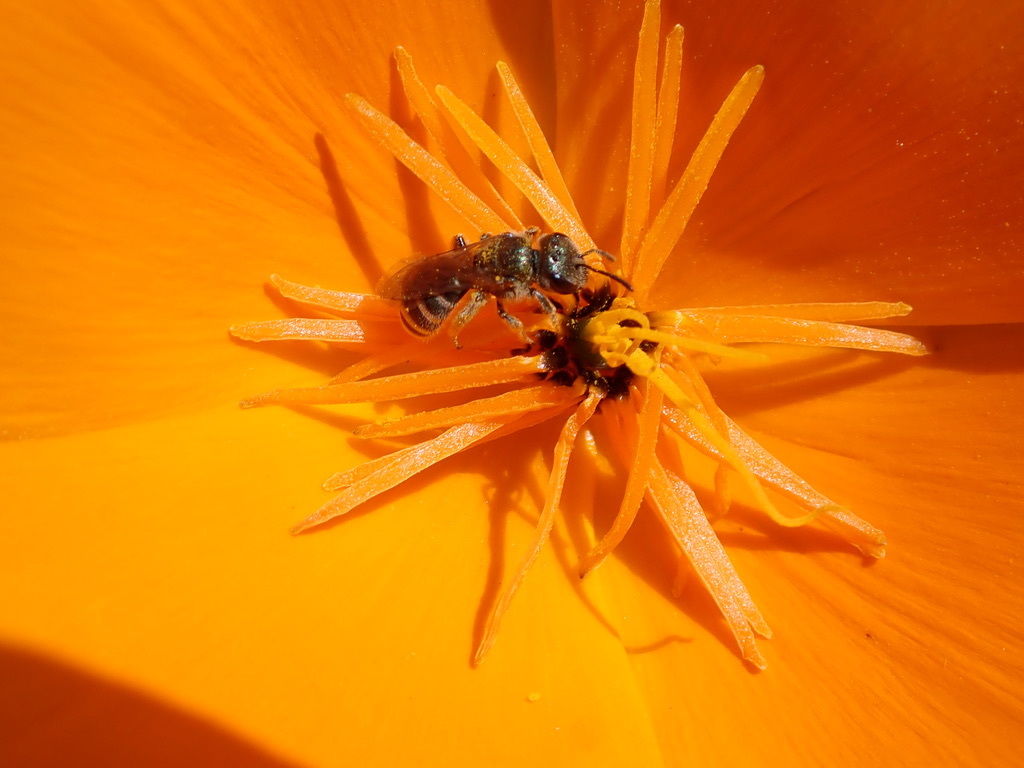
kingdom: Animalia
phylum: Arthropoda
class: Insecta
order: Hymenoptera
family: Halictidae
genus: Halictus
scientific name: Halictus tripartitus
